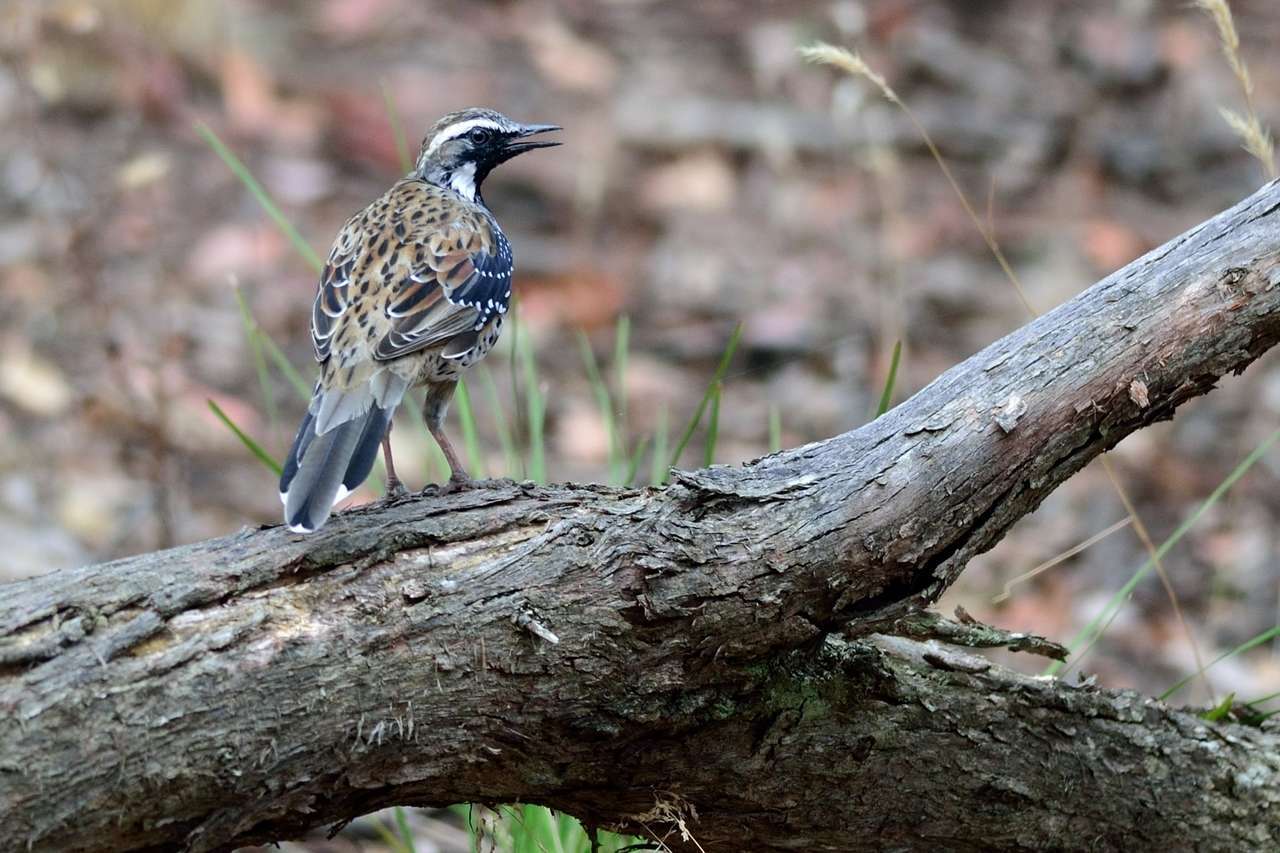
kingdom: Animalia
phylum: Chordata
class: Aves
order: Passeriformes
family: Psophodidae
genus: Cinclosoma
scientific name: Cinclosoma punctatum
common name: Spotted quail-thrush
